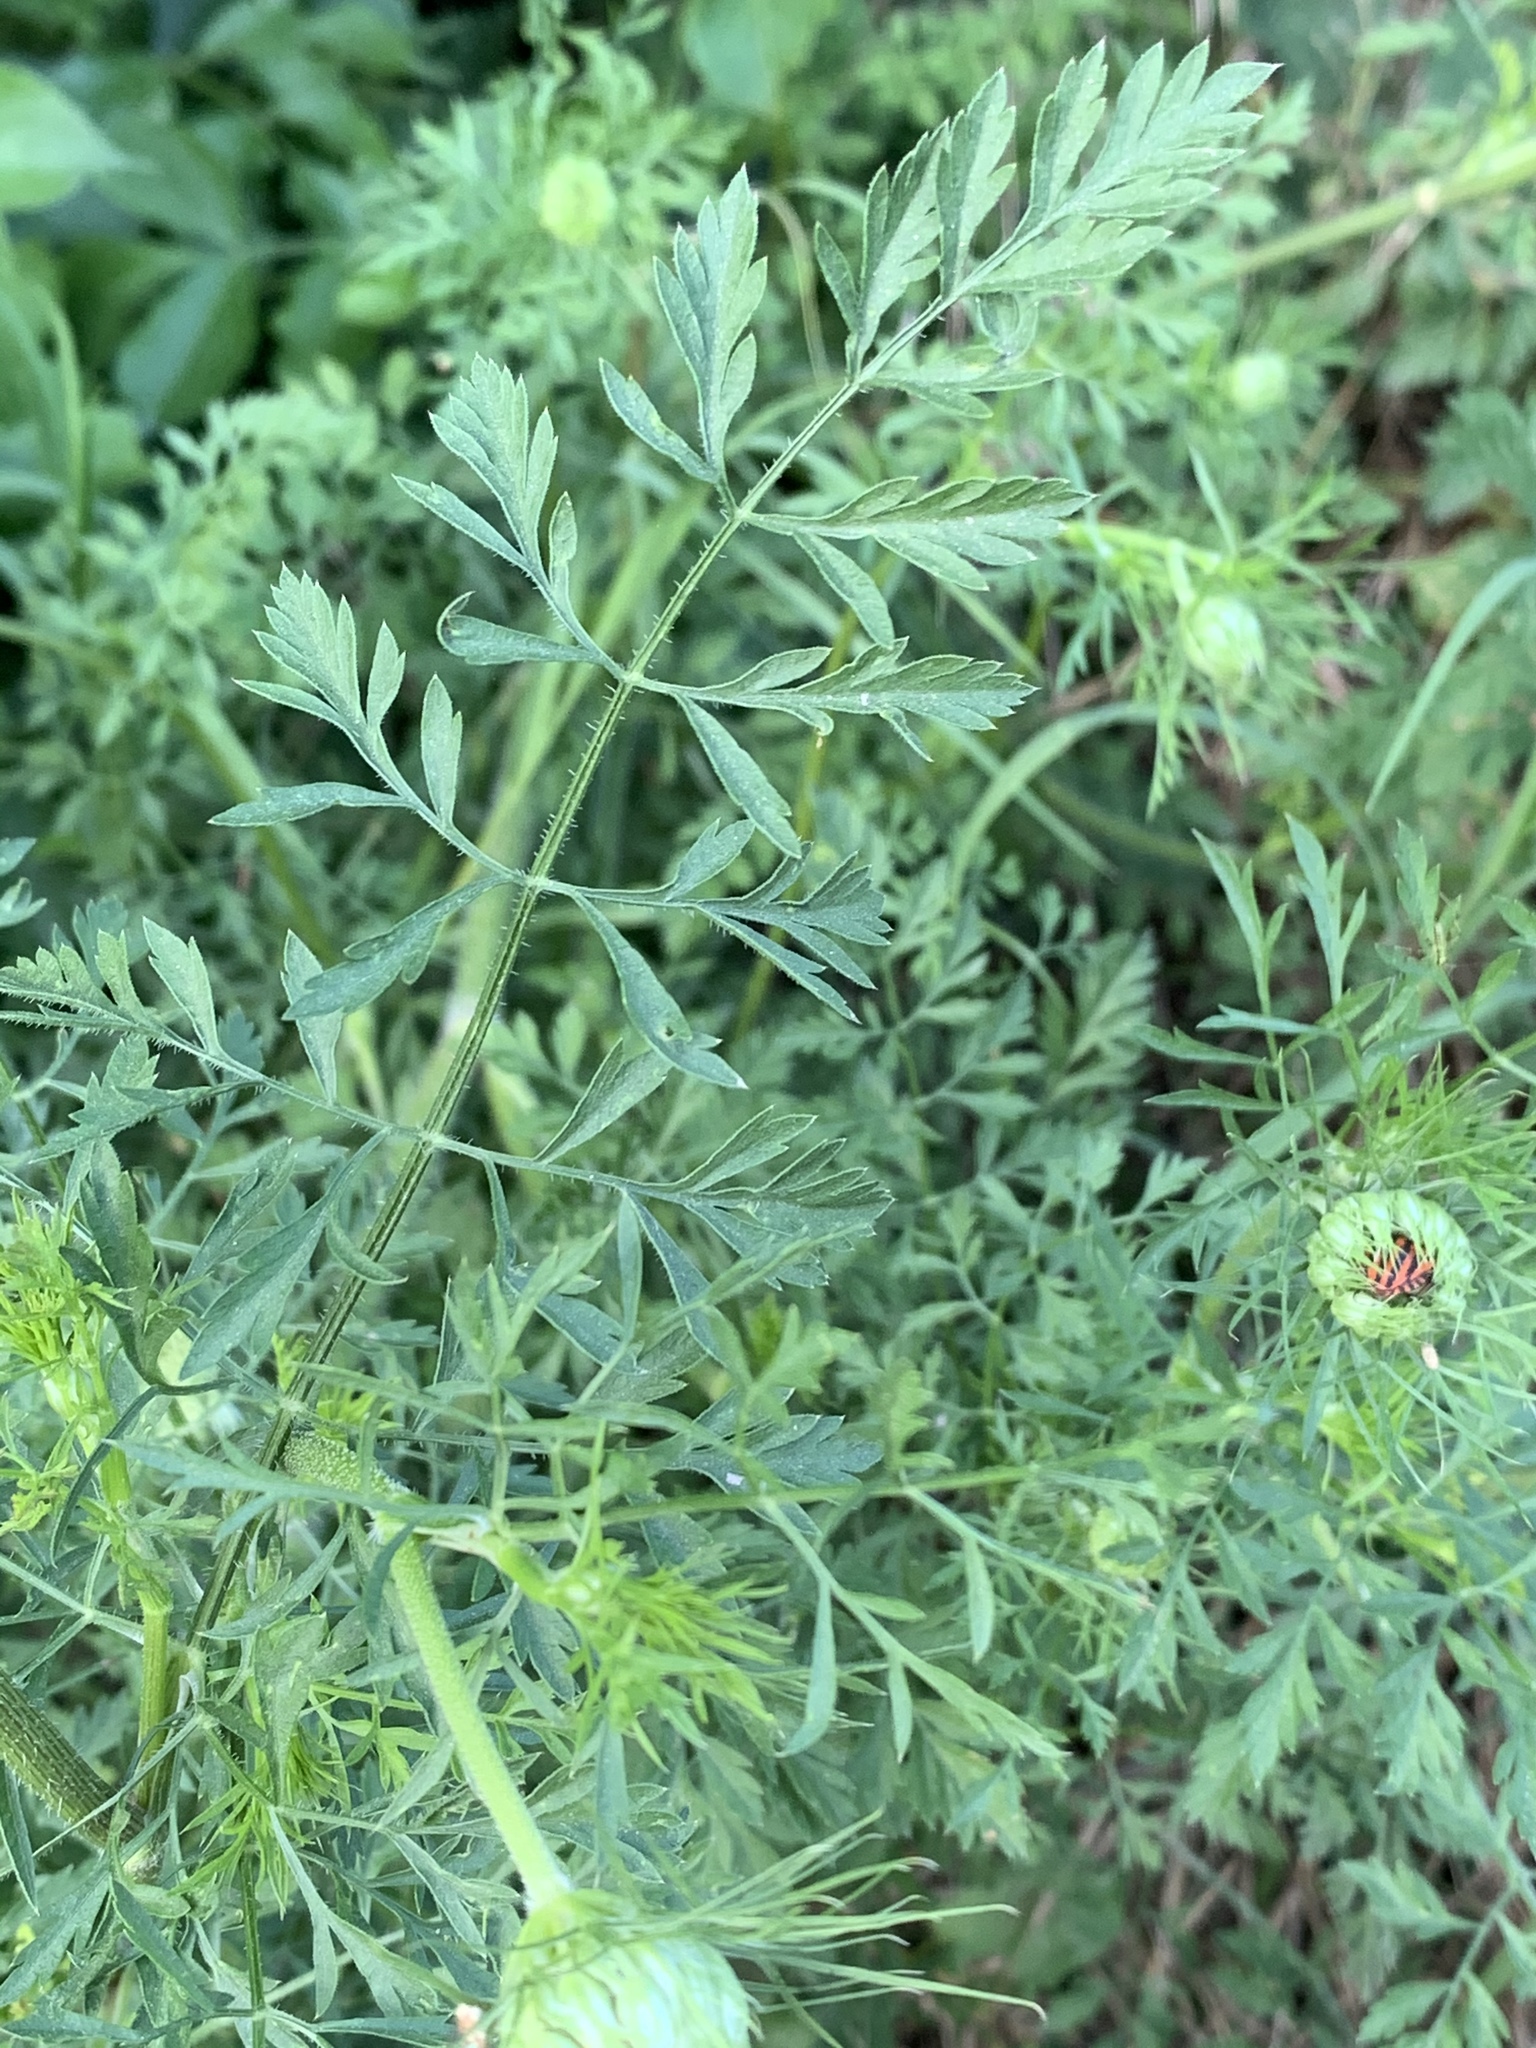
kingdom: Plantae
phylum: Tracheophyta
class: Magnoliopsida
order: Apiales
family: Apiaceae
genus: Daucus
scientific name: Daucus carota
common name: Wild carrot
